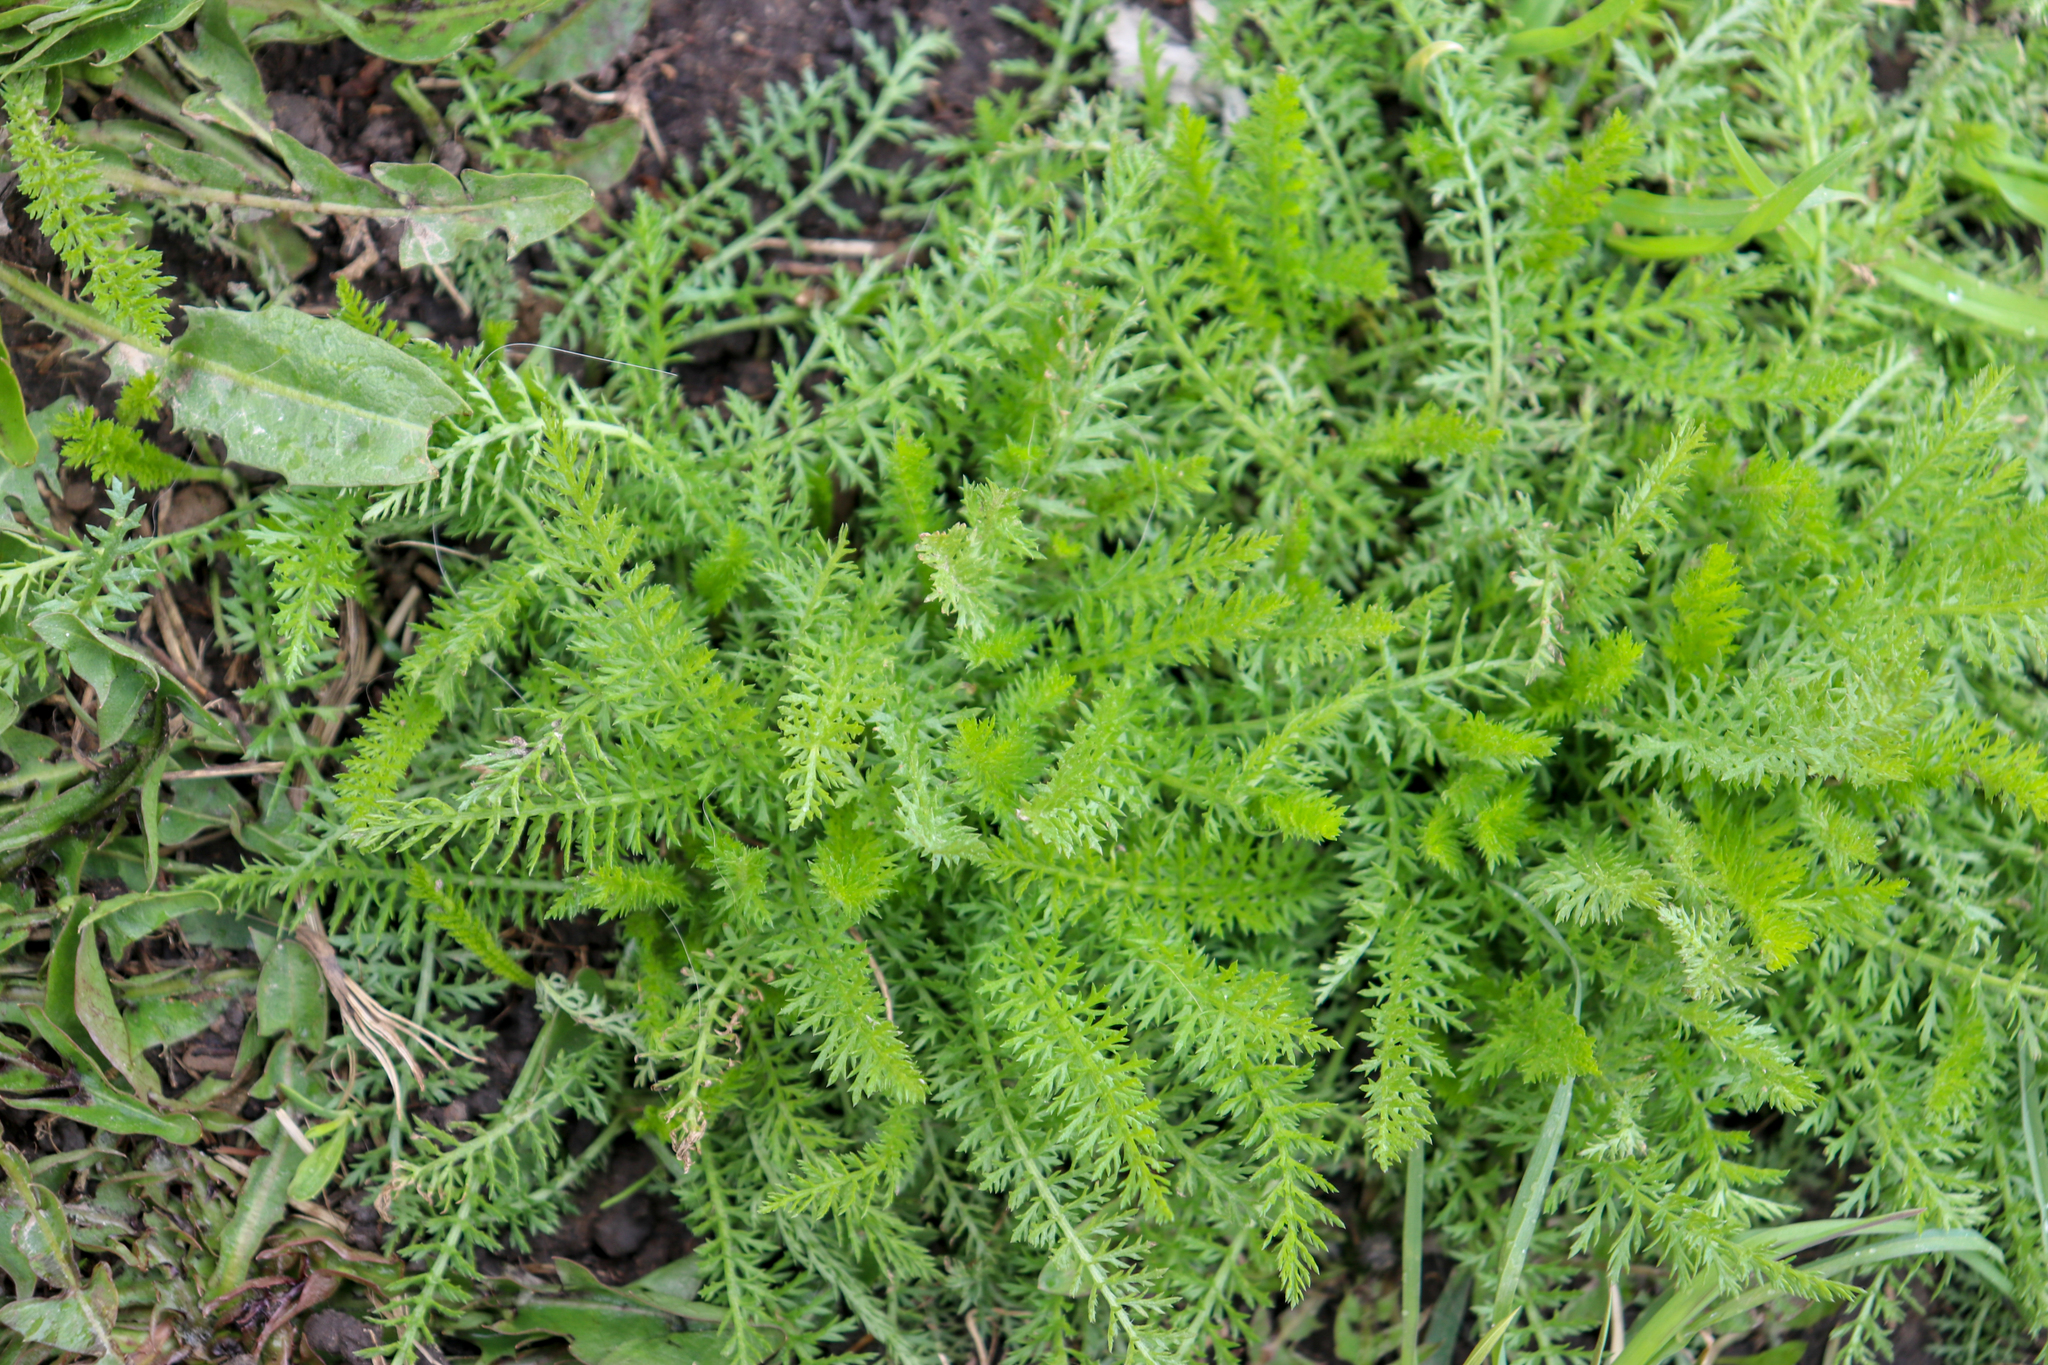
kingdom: Plantae
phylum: Tracheophyta
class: Magnoliopsida
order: Asterales
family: Asteraceae
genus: Achillea
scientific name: Achillea millefolium
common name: Yarrow
